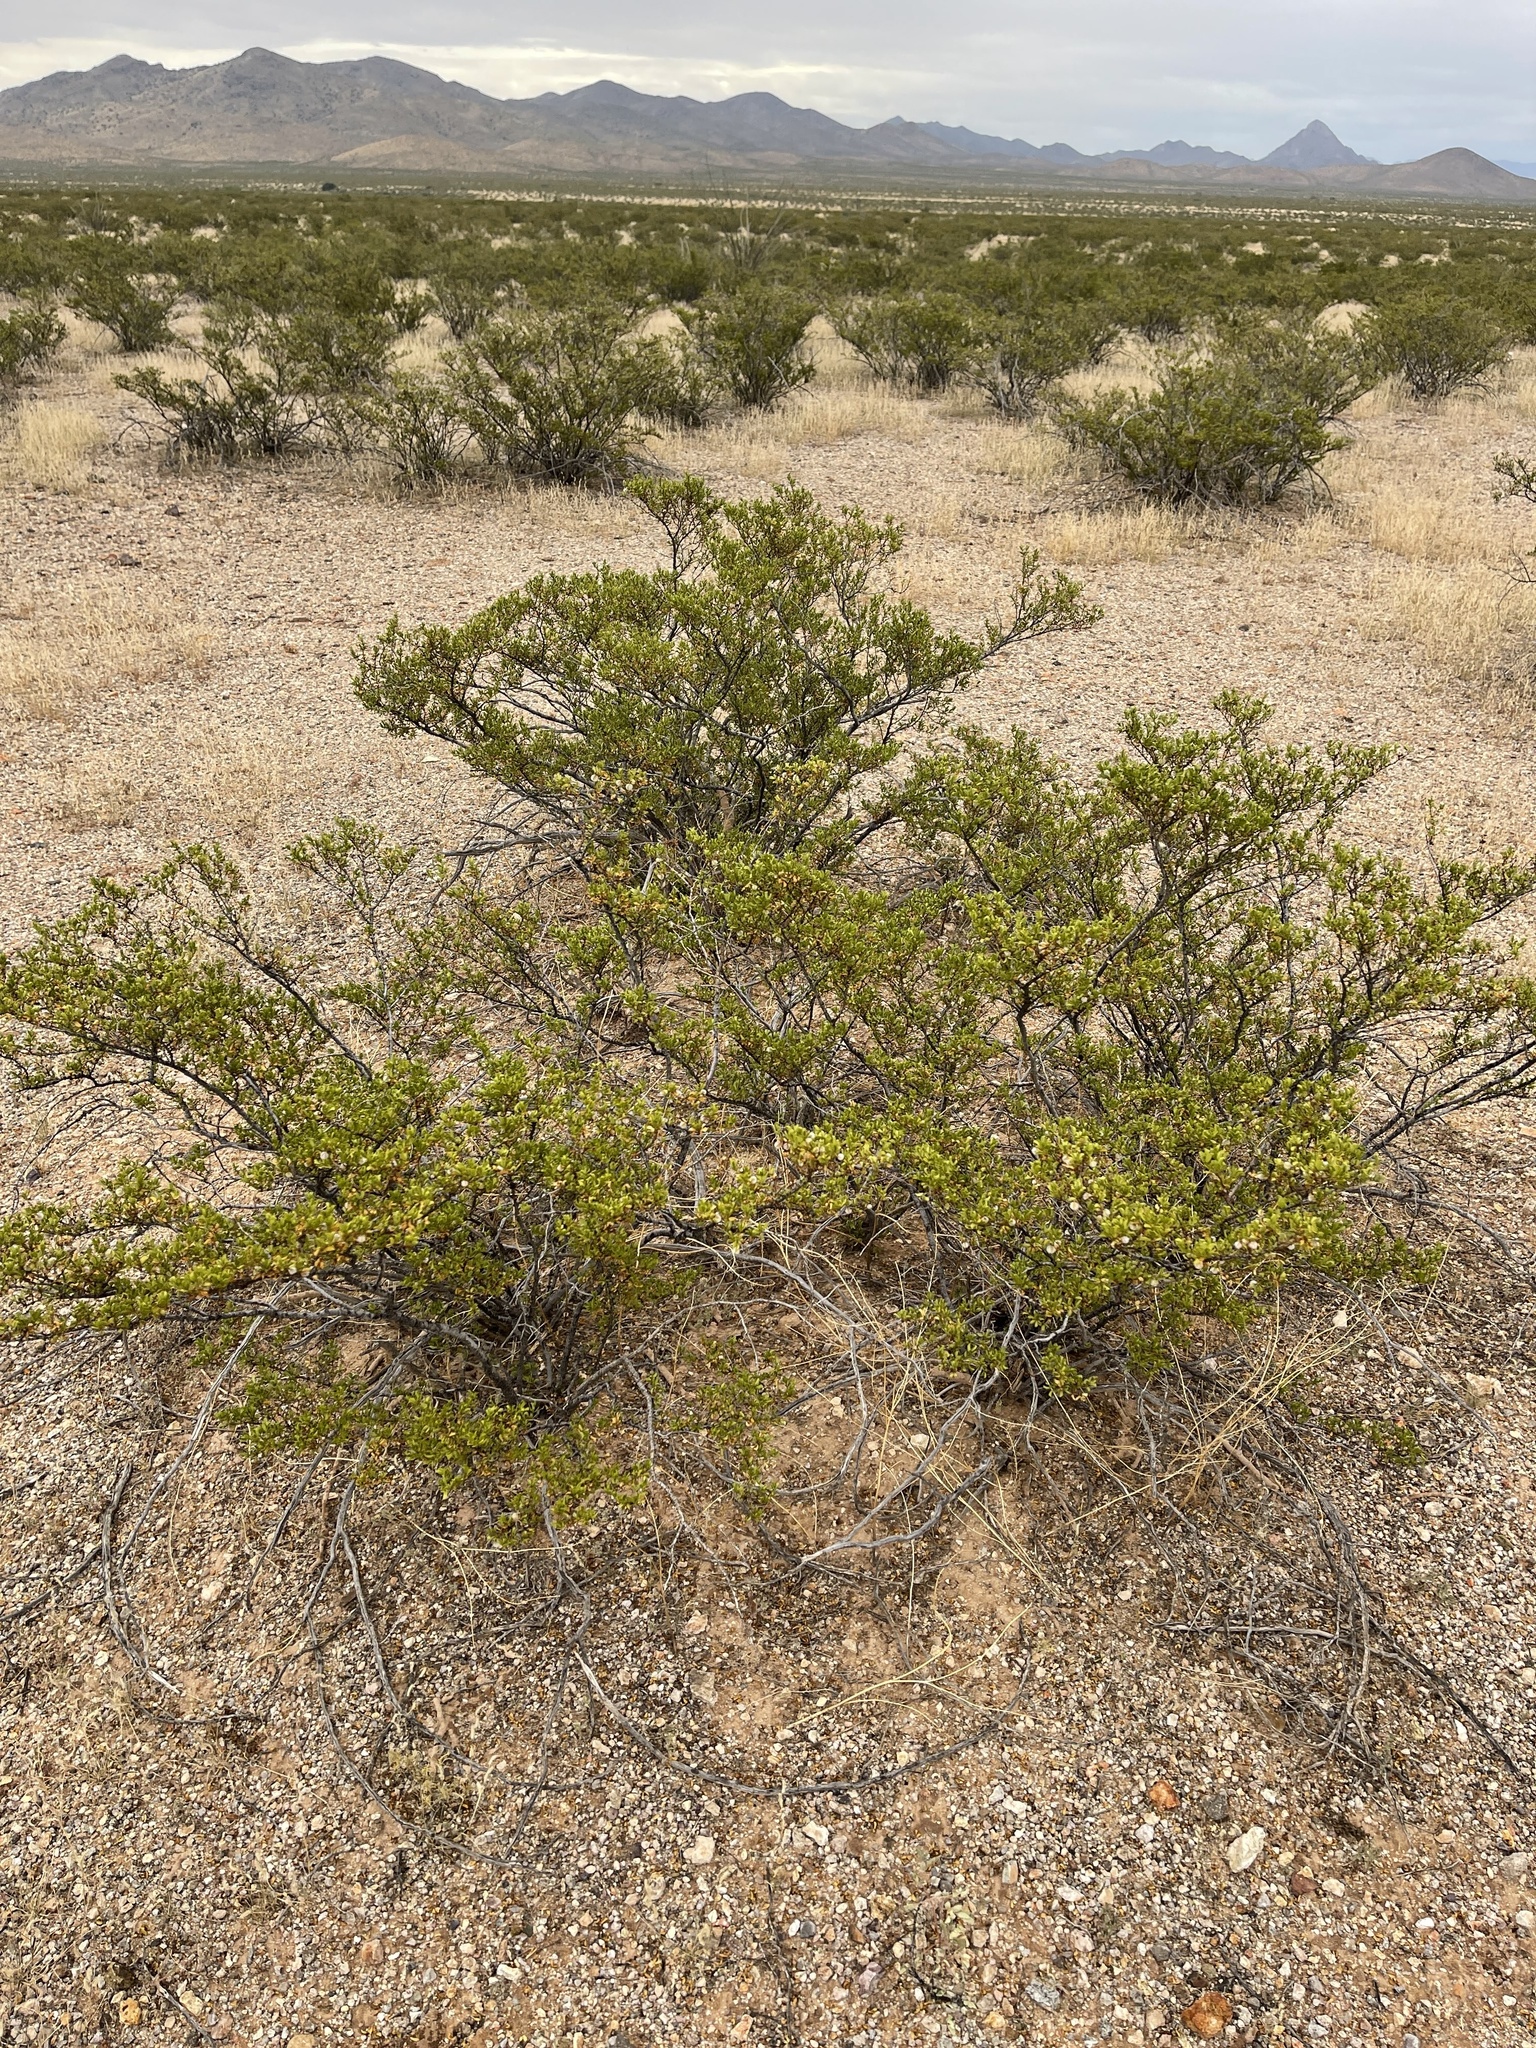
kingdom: Plantae
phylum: Tracheophyta
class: Magnoliopsida
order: Zygophyllales
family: Zygophyllaceae
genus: Larrea
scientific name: Larrea tridentata
